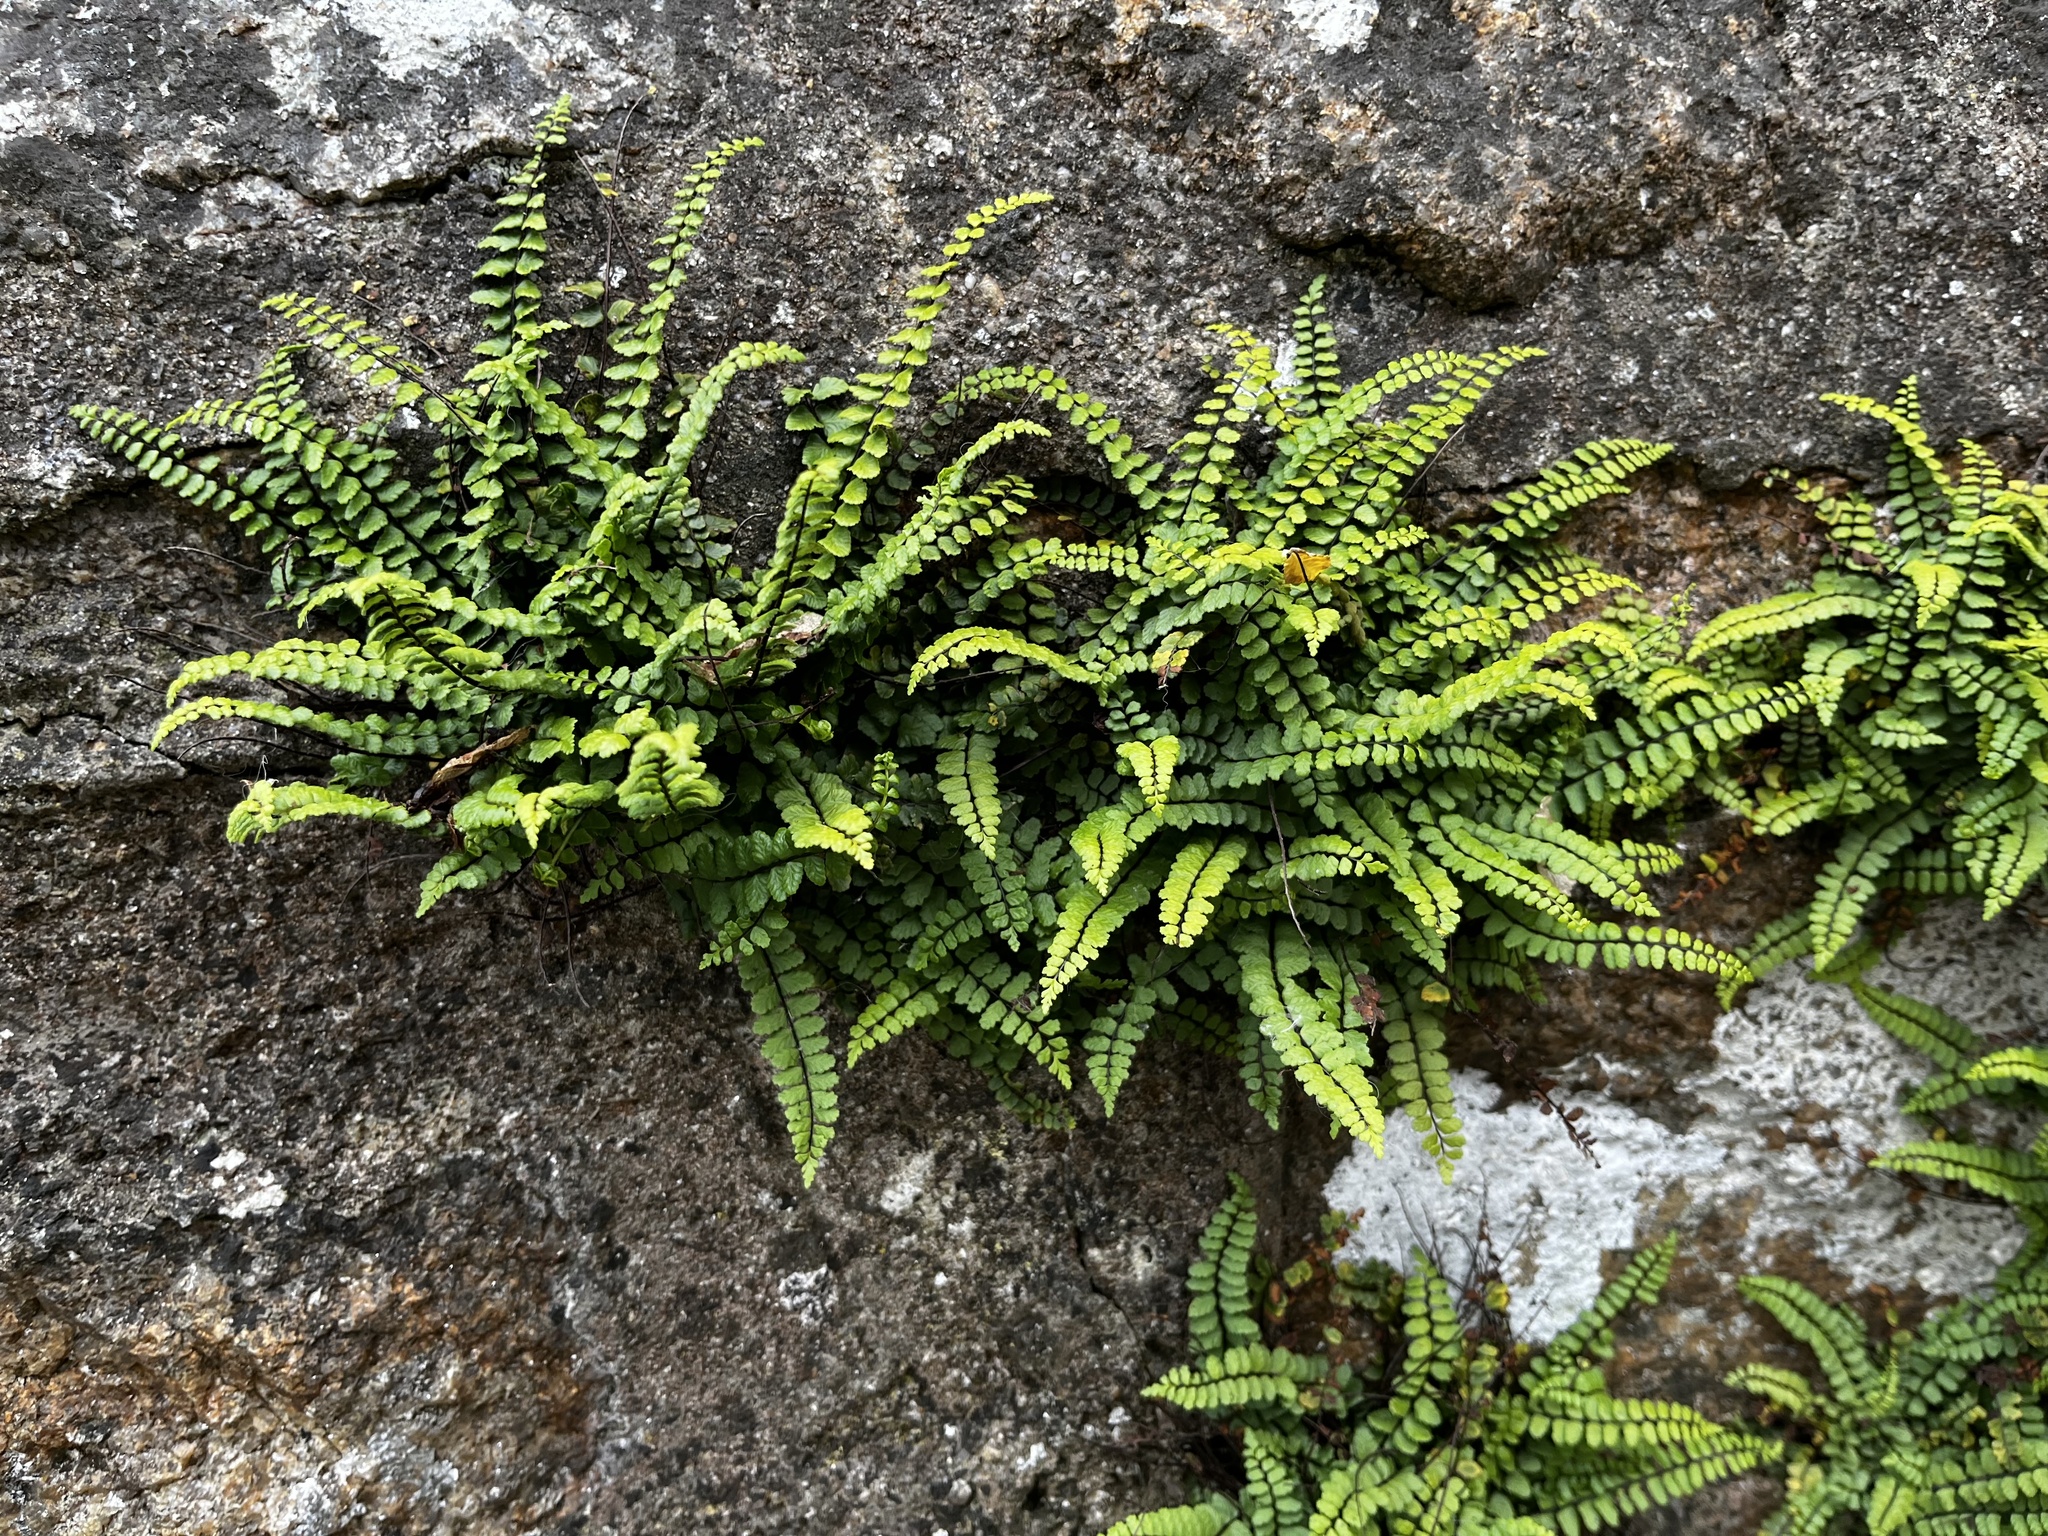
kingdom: Plantae
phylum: Tracheophyta
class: Polypodiopsida
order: Polypodiales
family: Aspleniaceae
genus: Asplenium
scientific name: Asplenium trichomanes
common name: Maidenhair spleenwort
